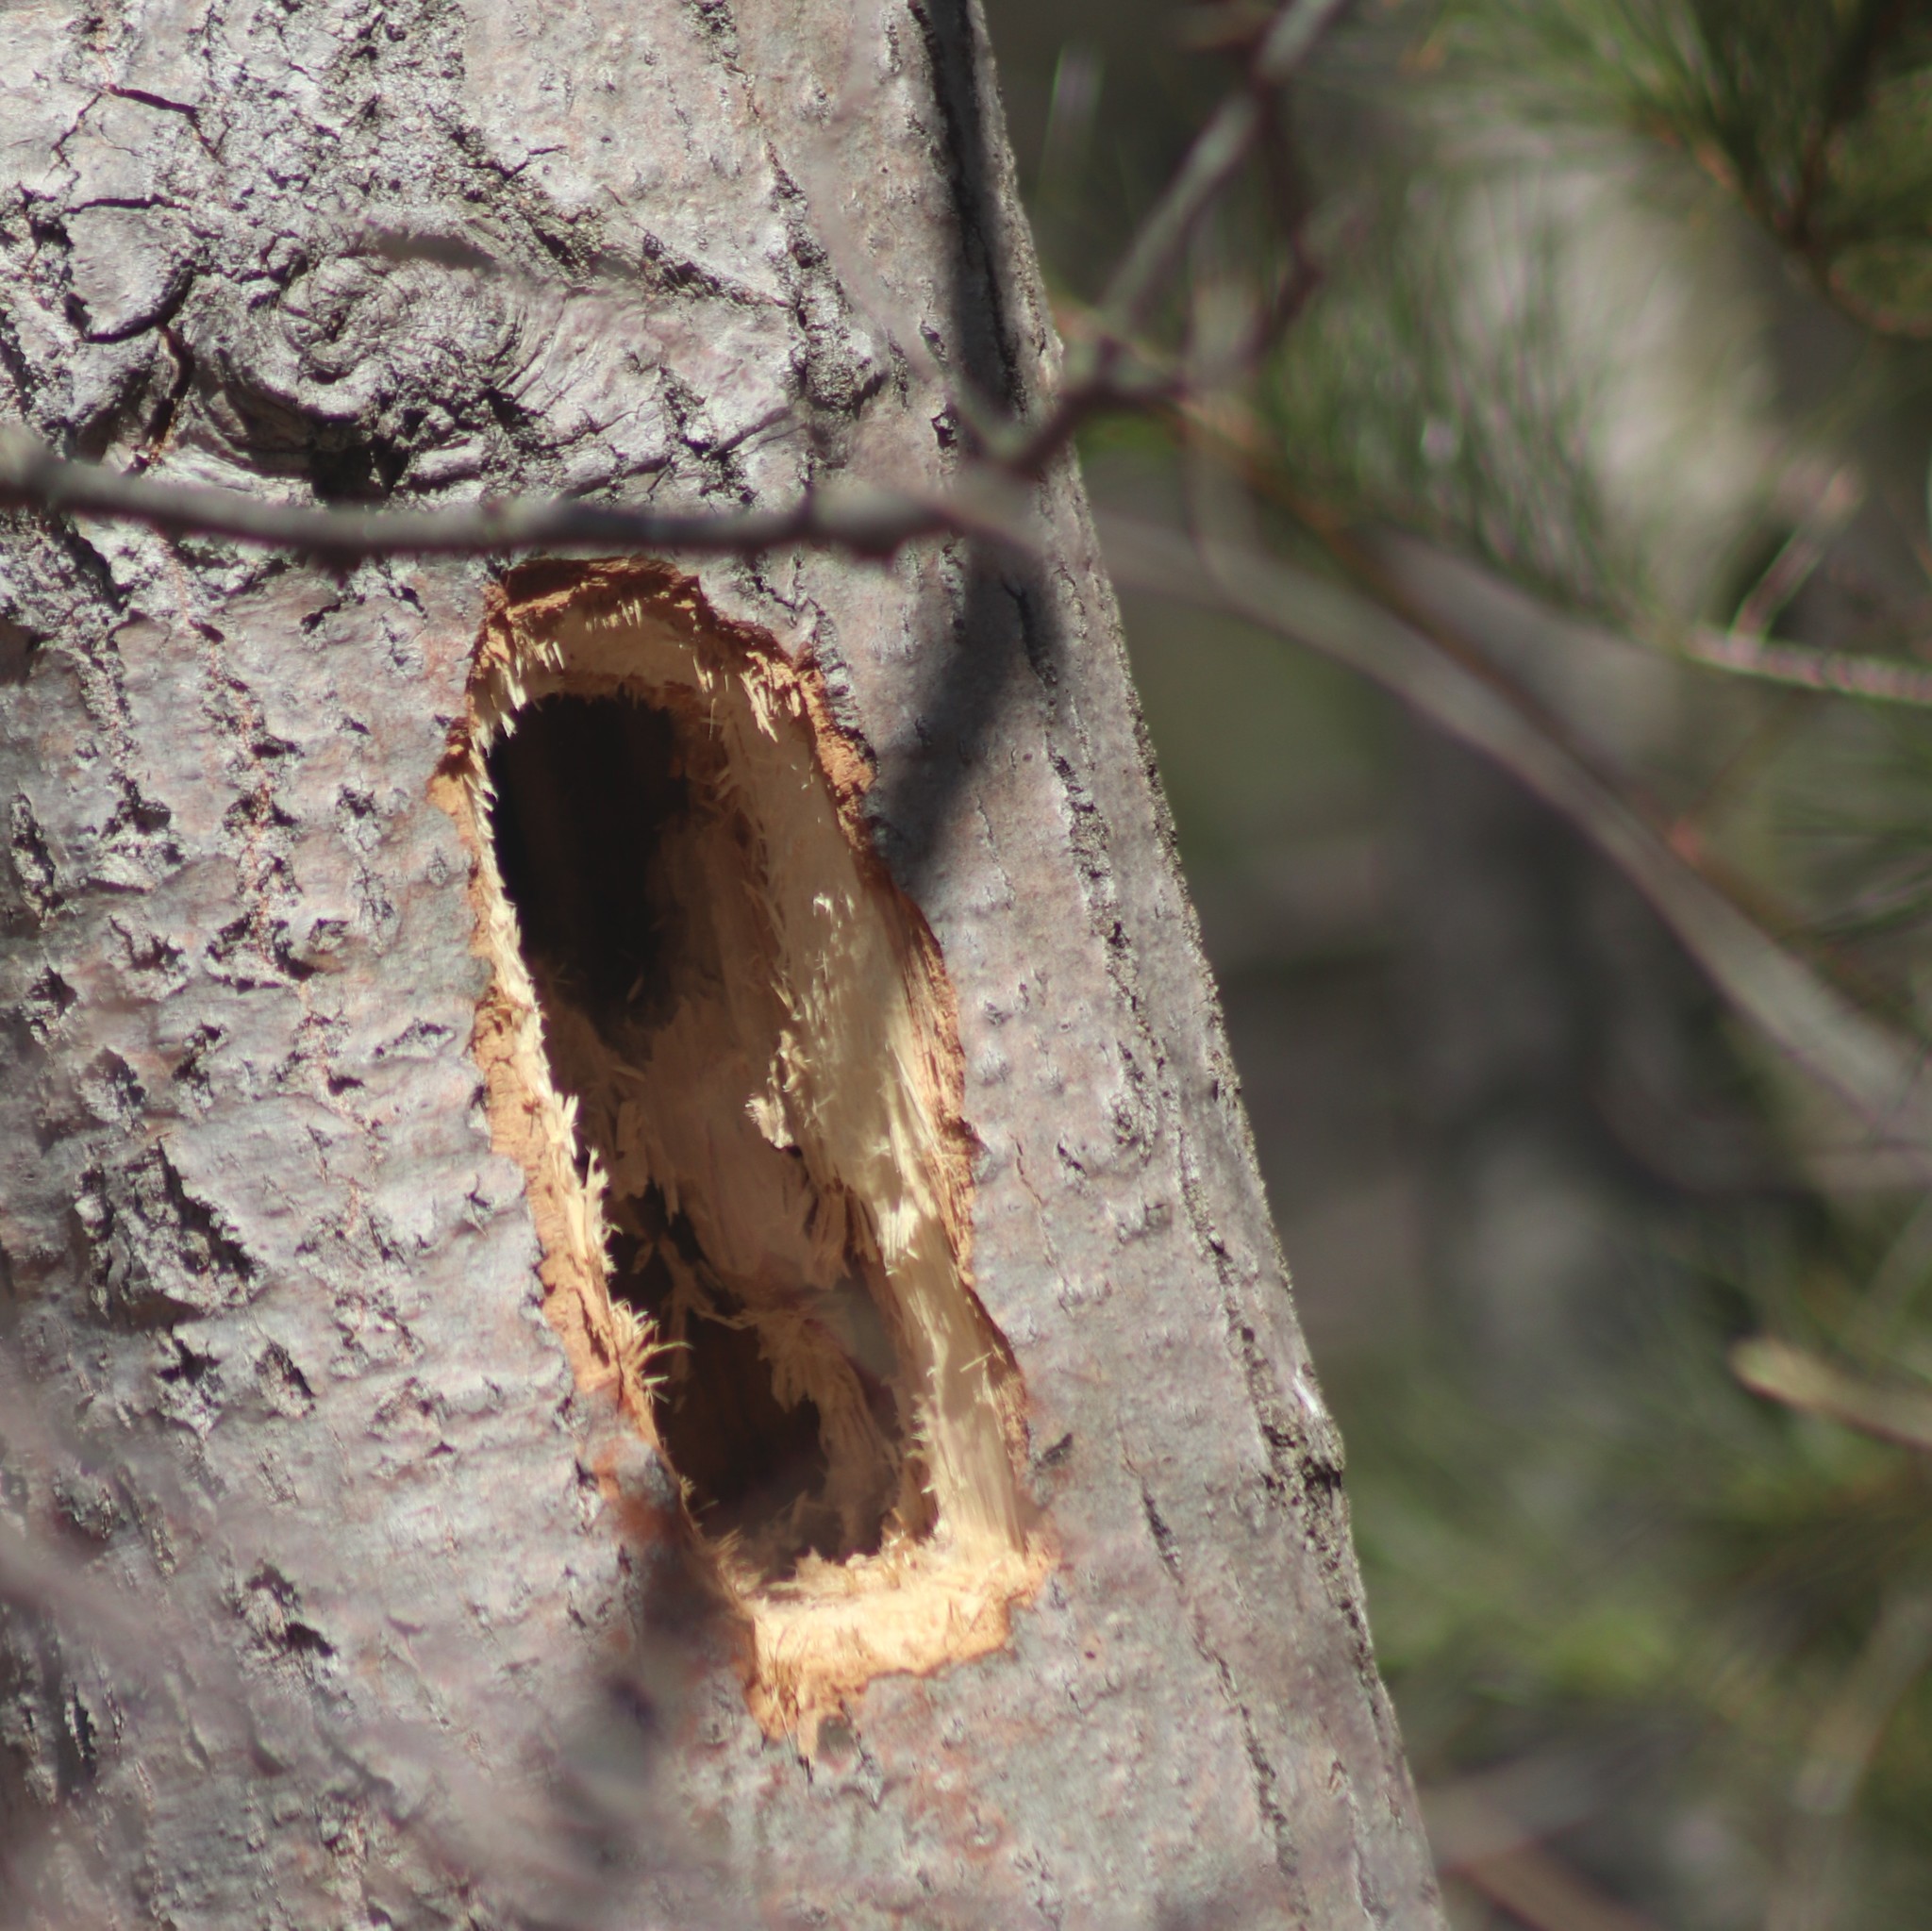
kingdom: Animalia
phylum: Chordata
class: Aves
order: Piciformes
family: Picidae
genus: Dryocopus
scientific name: Dryocopus pileatus
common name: Pileated woodpecker
